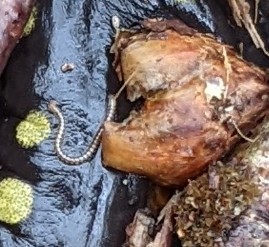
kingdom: Animalia
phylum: Arthropoda
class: Diplopoda
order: Julida
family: Blaniulidae
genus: Blaniulus
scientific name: Blaniulus guttulatus
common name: Spotted snake millipede
